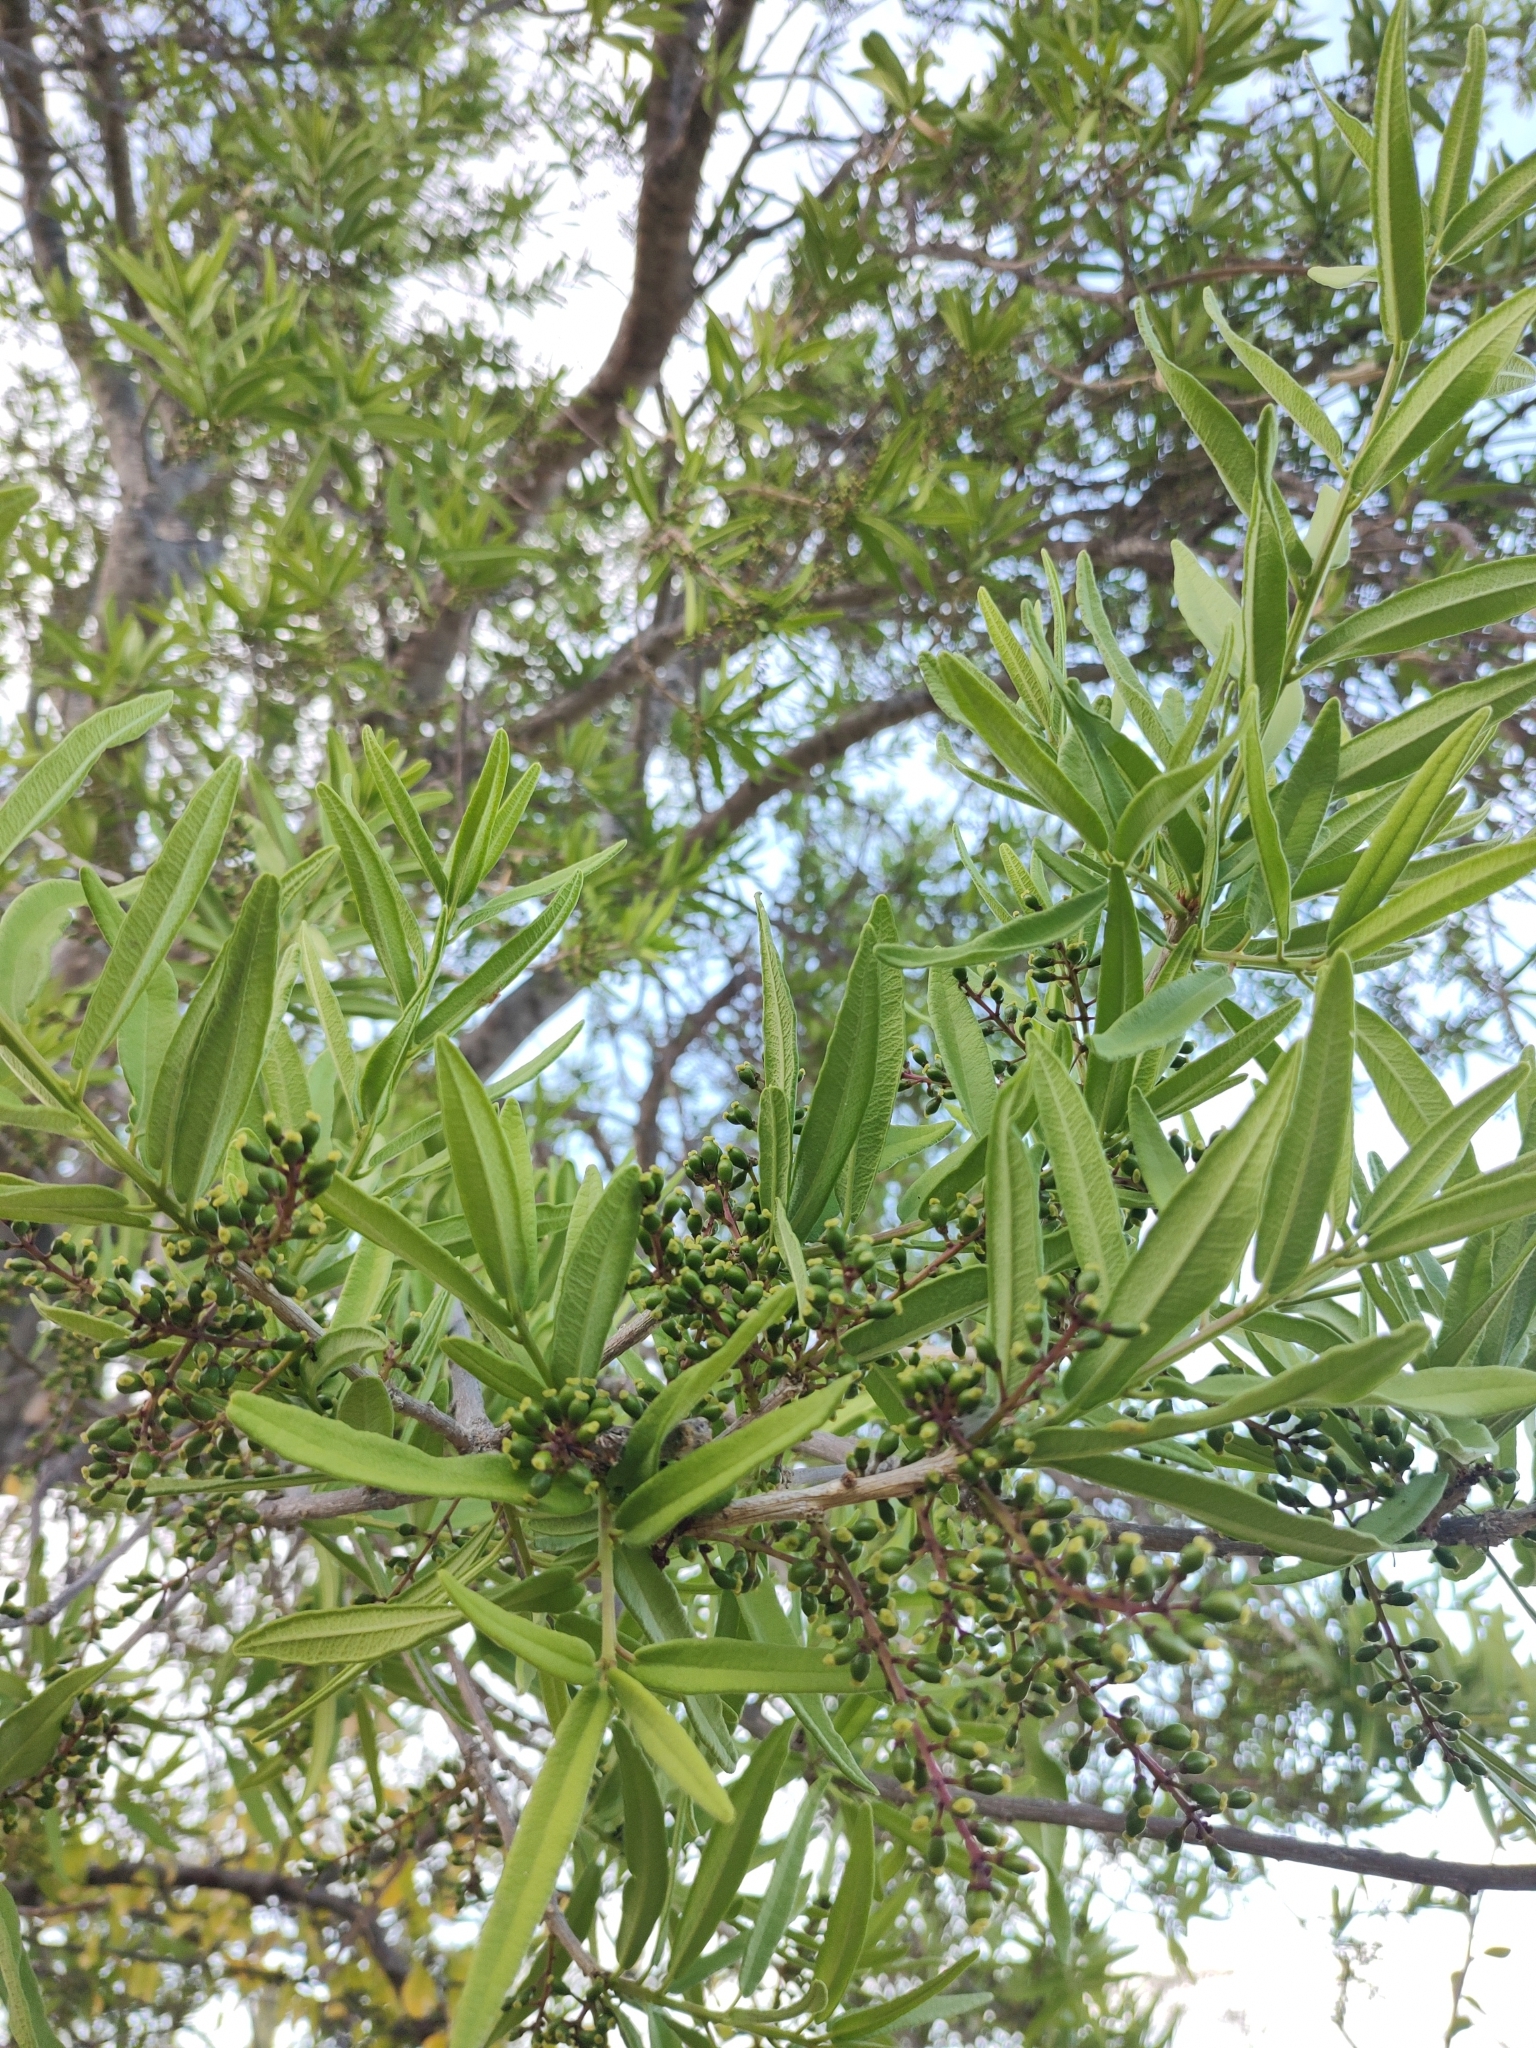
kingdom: Plantae
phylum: Tracheophyta
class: Magnoliopsida
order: Brassicales
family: Stixaceae
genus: Forchhammeria
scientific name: Forchhammeria watsonii
